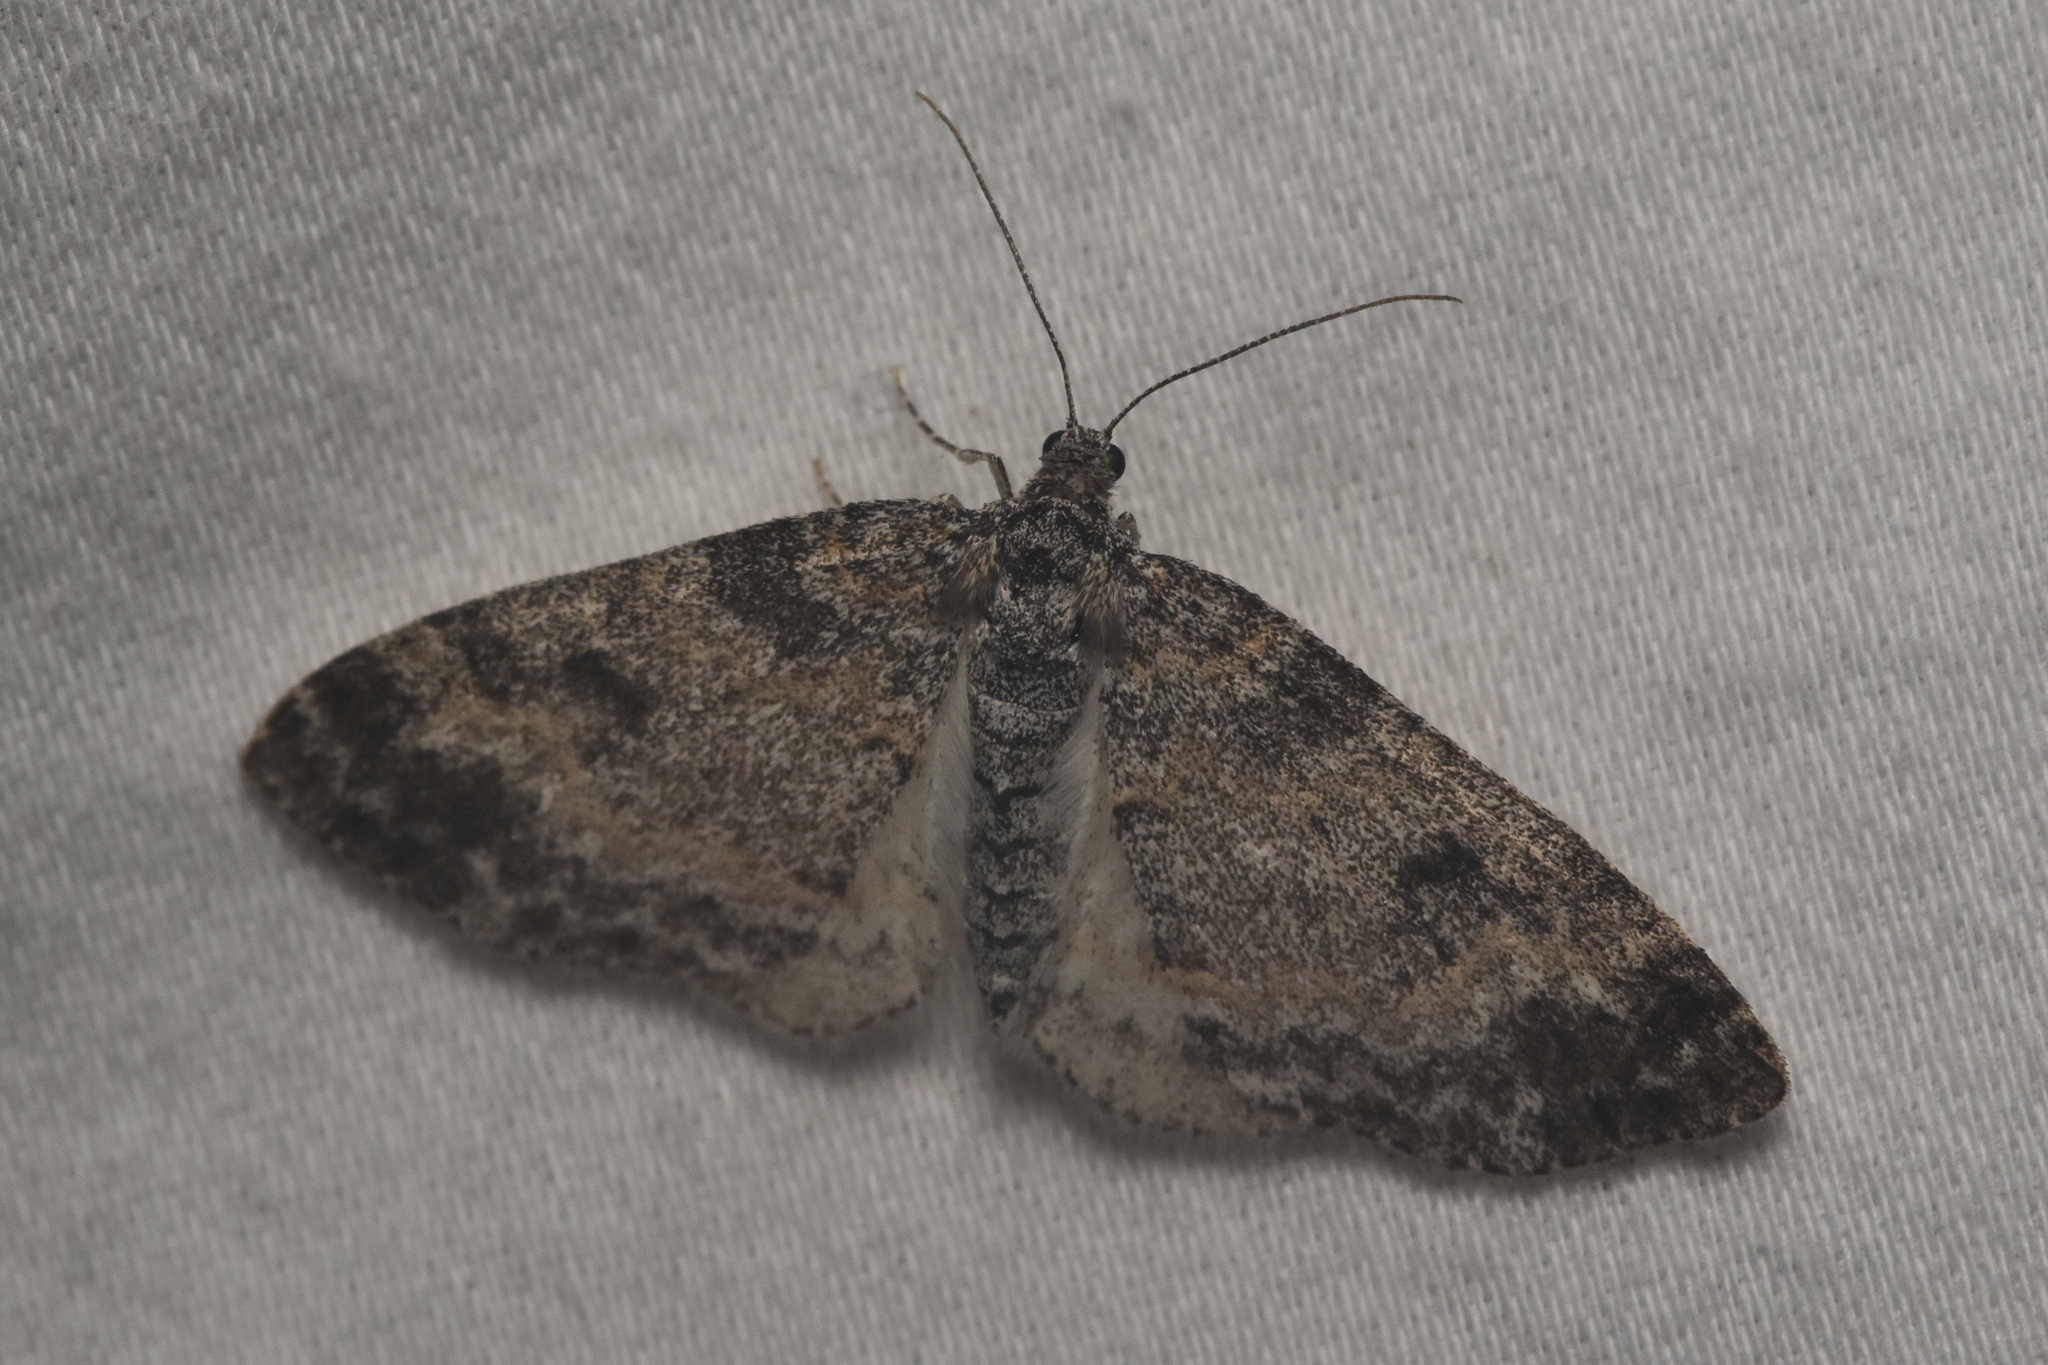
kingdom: Animalia
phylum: Arthropoda
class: Insecta
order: Lepidoptera
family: Geometridae
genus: Lobophora
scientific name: Lobophora nivigerata
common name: Powdered bigwing
